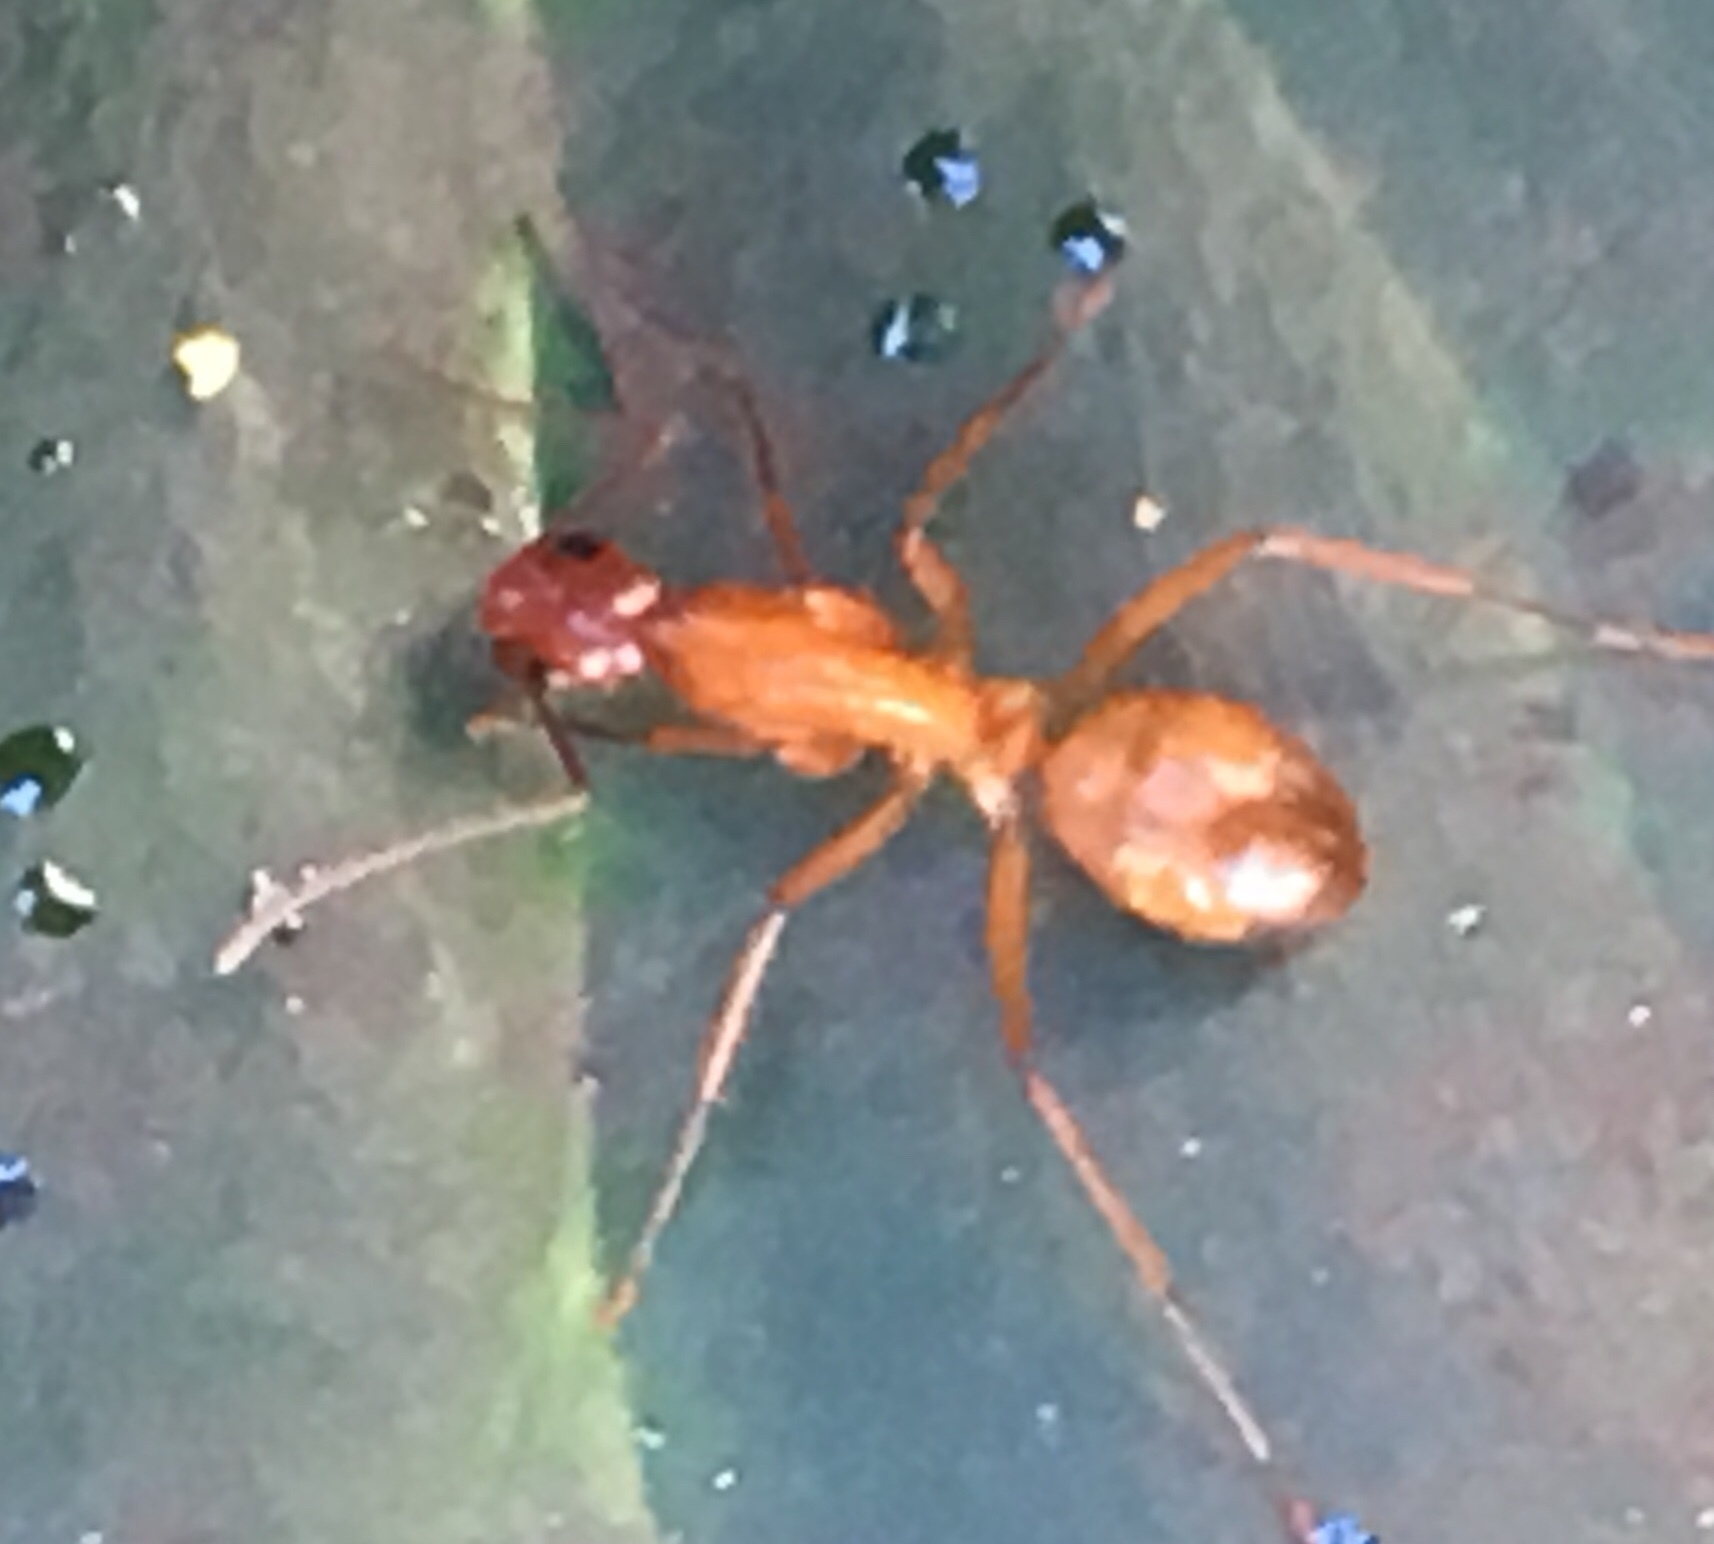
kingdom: Animalia
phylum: Arthropoda
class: Insecta
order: Hymenoptera
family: Formicidae
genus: Camponotus
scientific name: Camponotus castaneus
